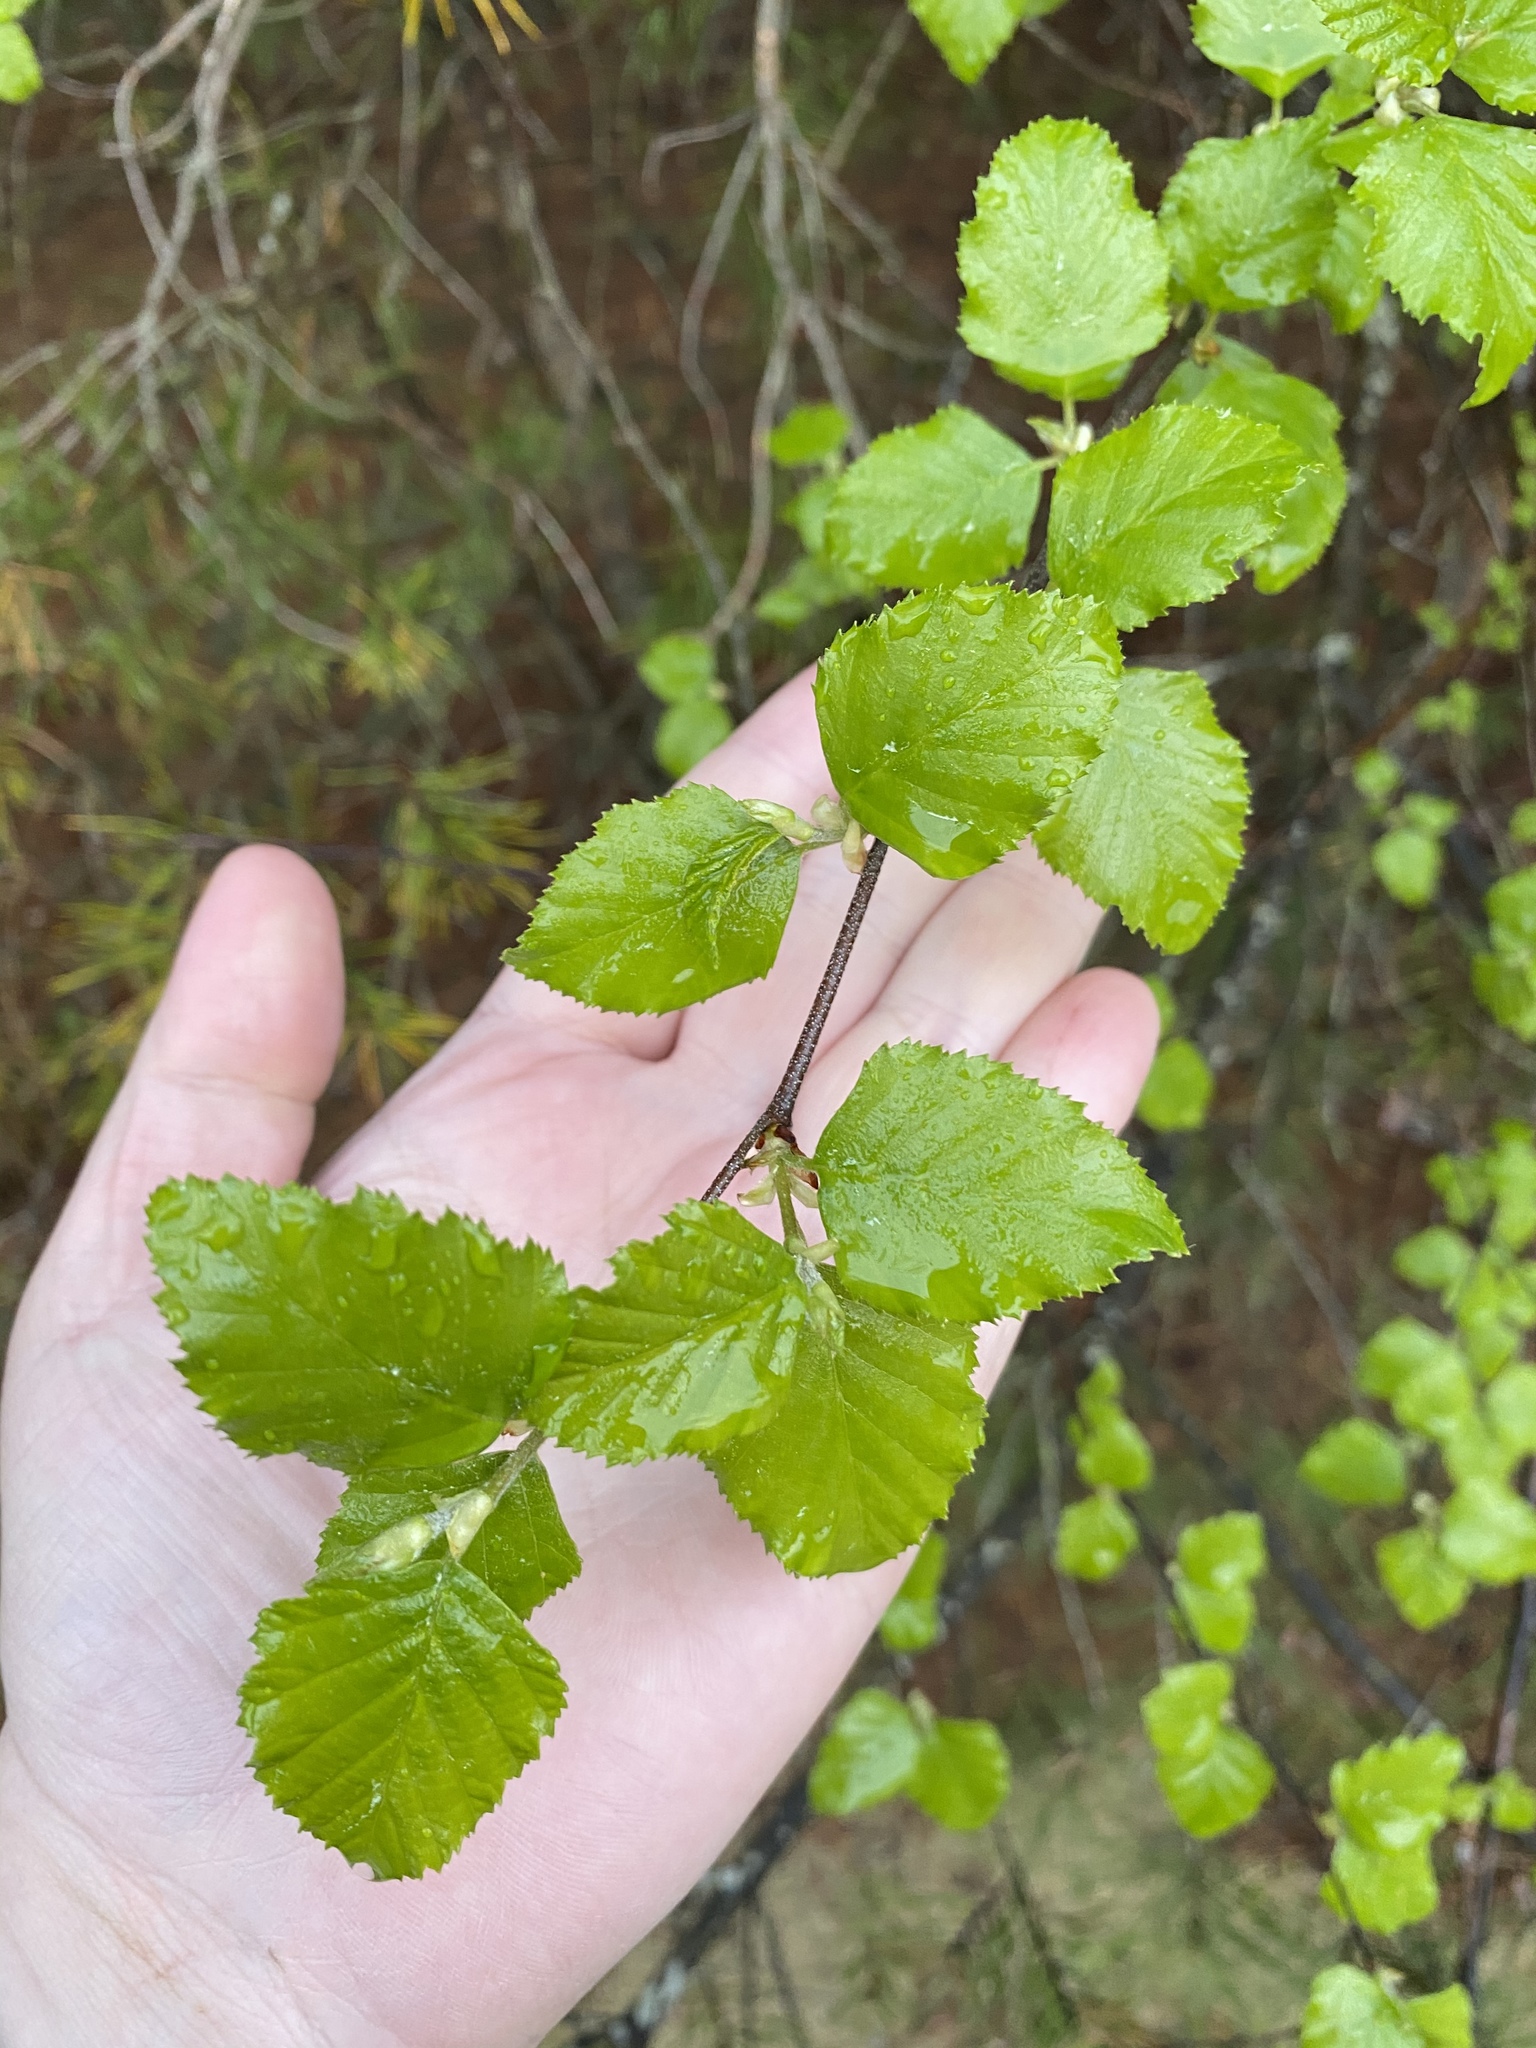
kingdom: Plantae
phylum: Tracheophyta
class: Magnoliopsida
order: Fagales
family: Betulaceae
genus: Betula
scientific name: Betula nigra
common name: Black birch
